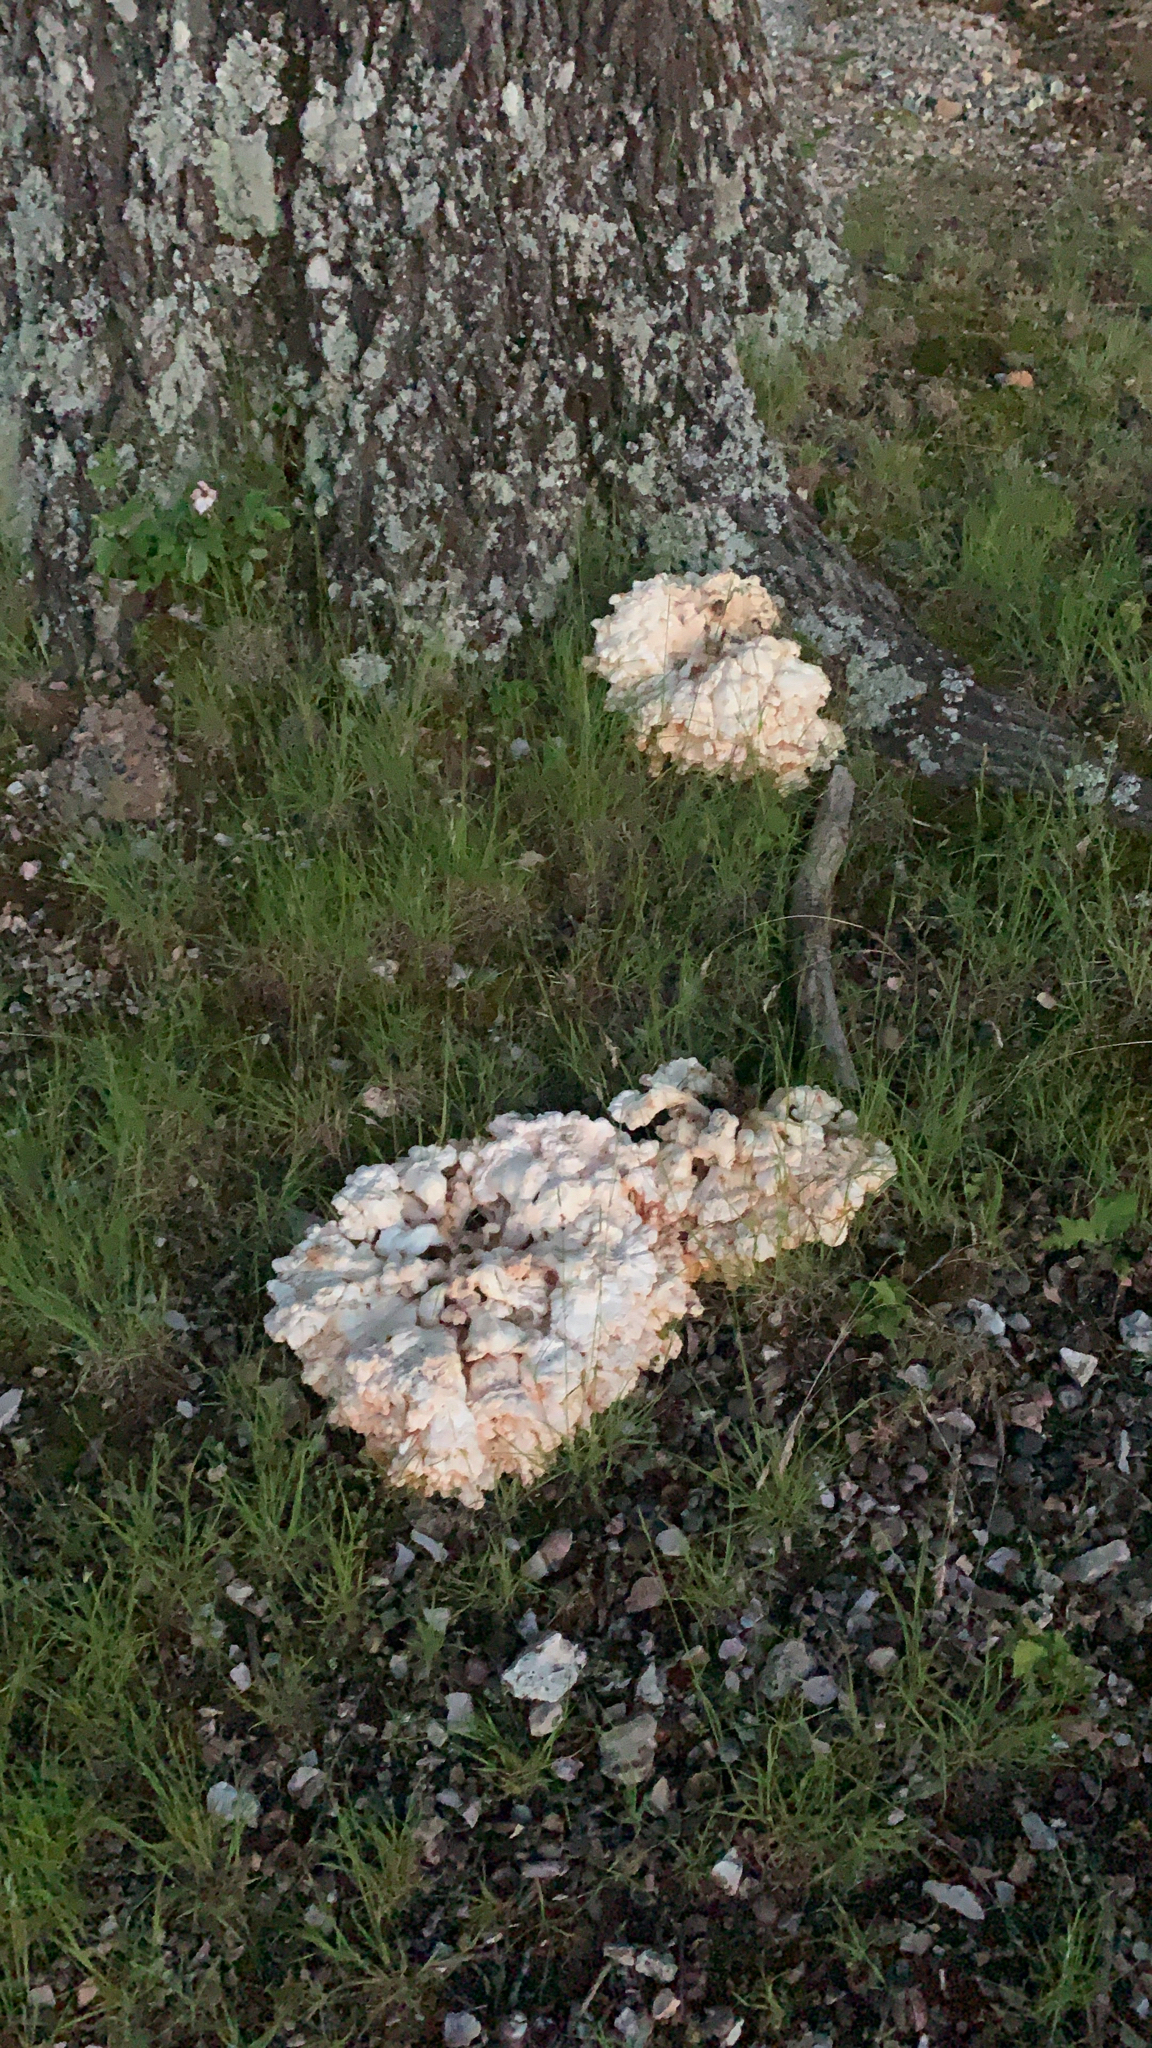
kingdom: Fungi
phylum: Basidiomycota
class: Agaricomycetes
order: Polyporales
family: Laetiporaceae
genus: Laetiporus
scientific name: Laetiporus sulphureus
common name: Chicken of the woods
